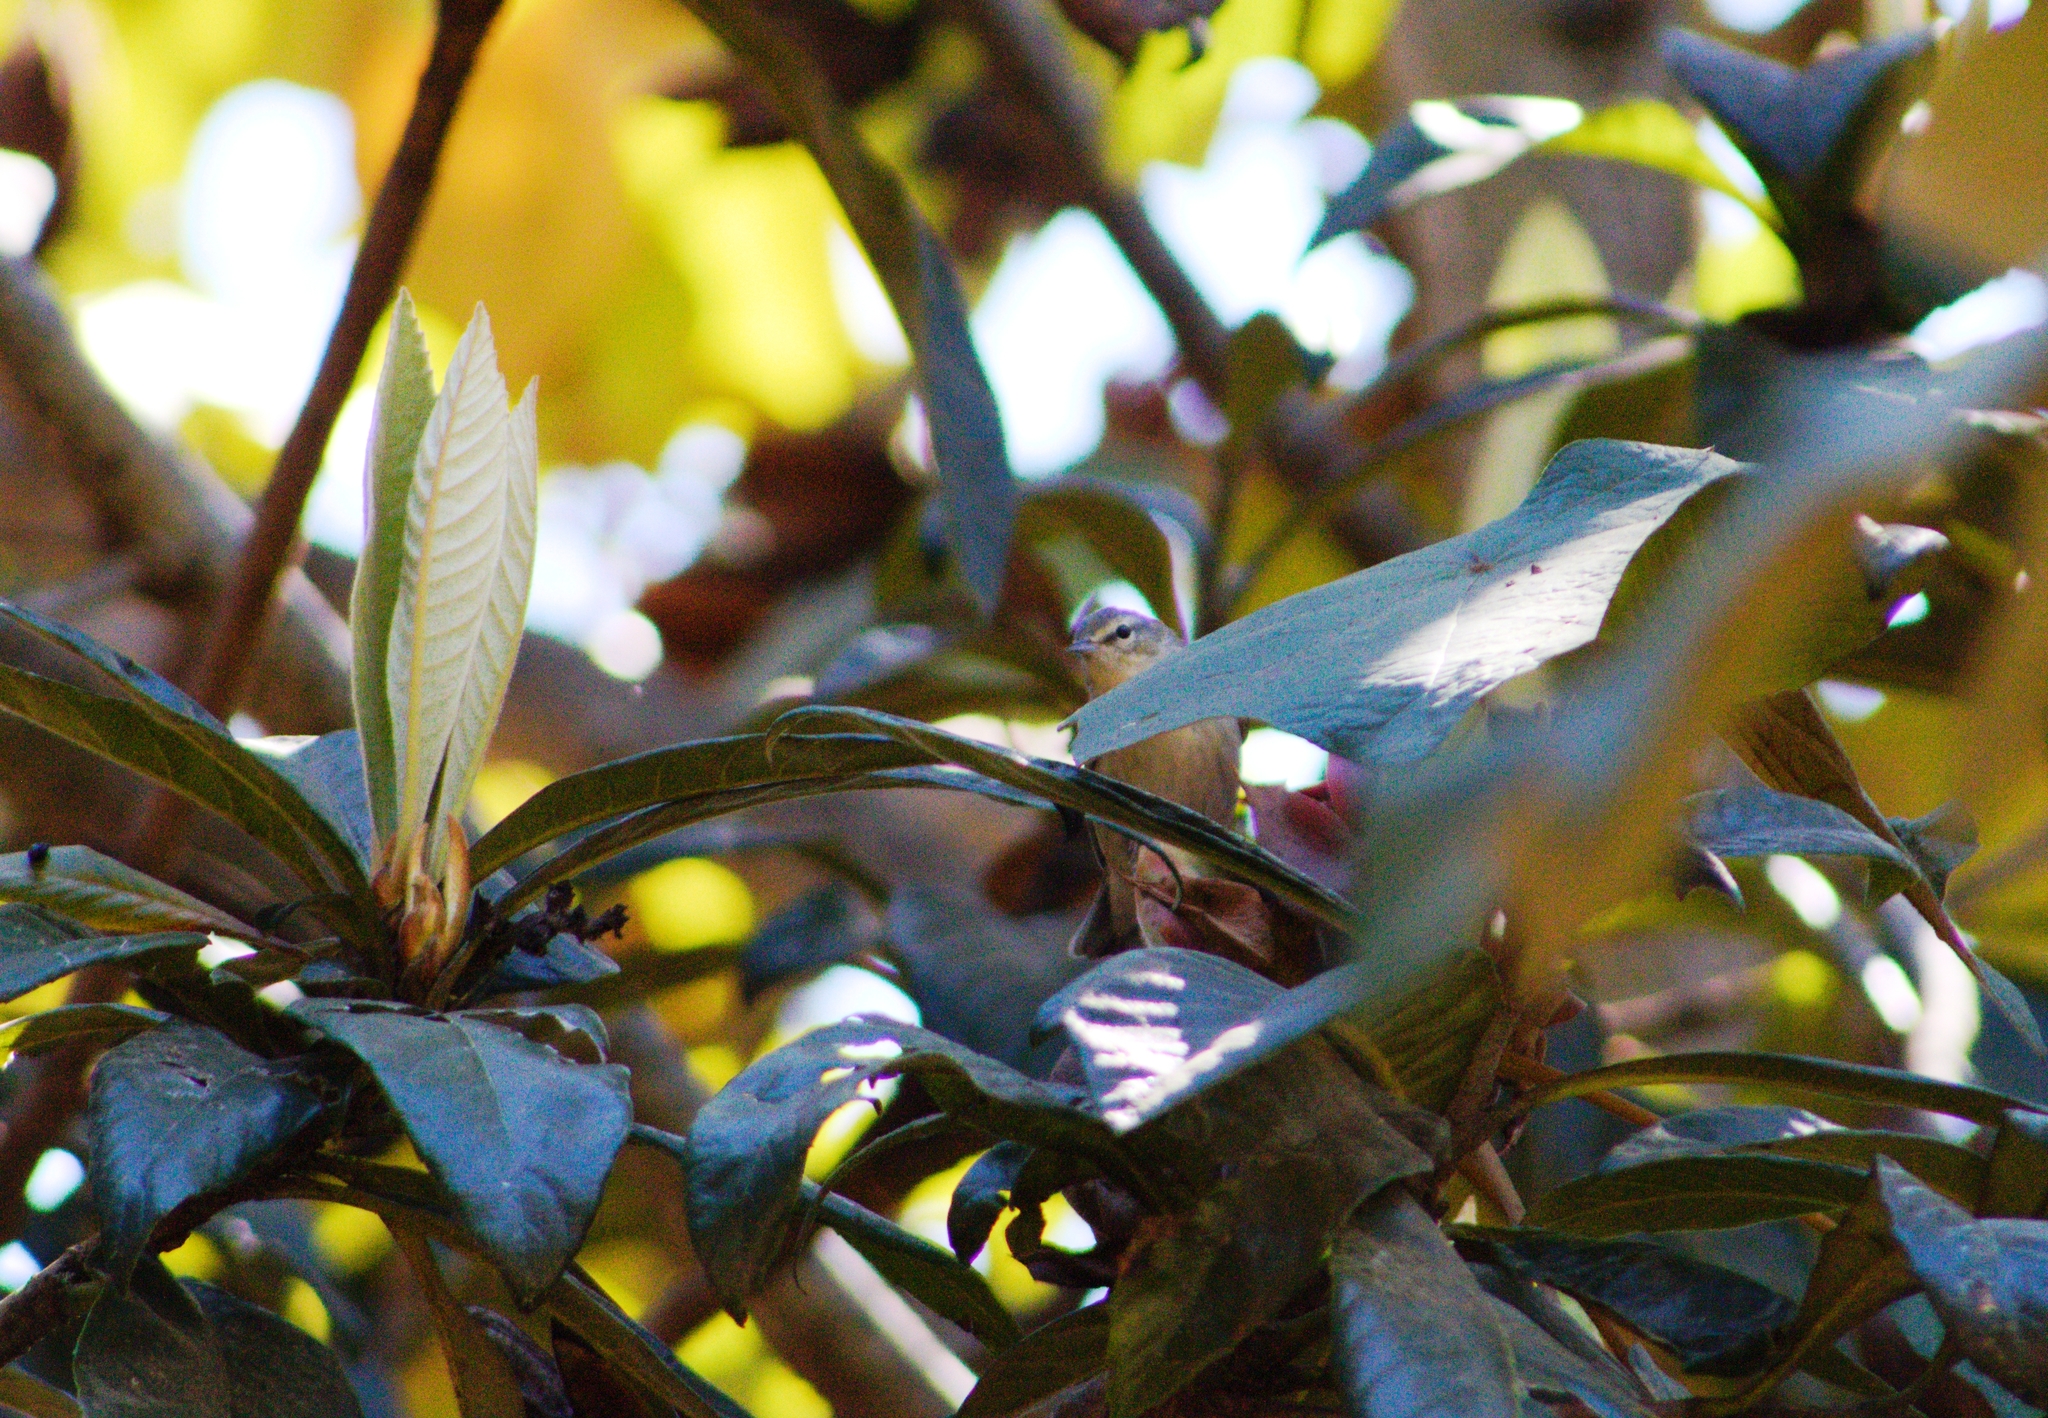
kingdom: Animalia
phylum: Chordata
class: Aves
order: Passeriformes
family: Parulidae
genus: Leiothlypis
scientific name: Leiothlypis peregrina
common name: Tennessee warbler
